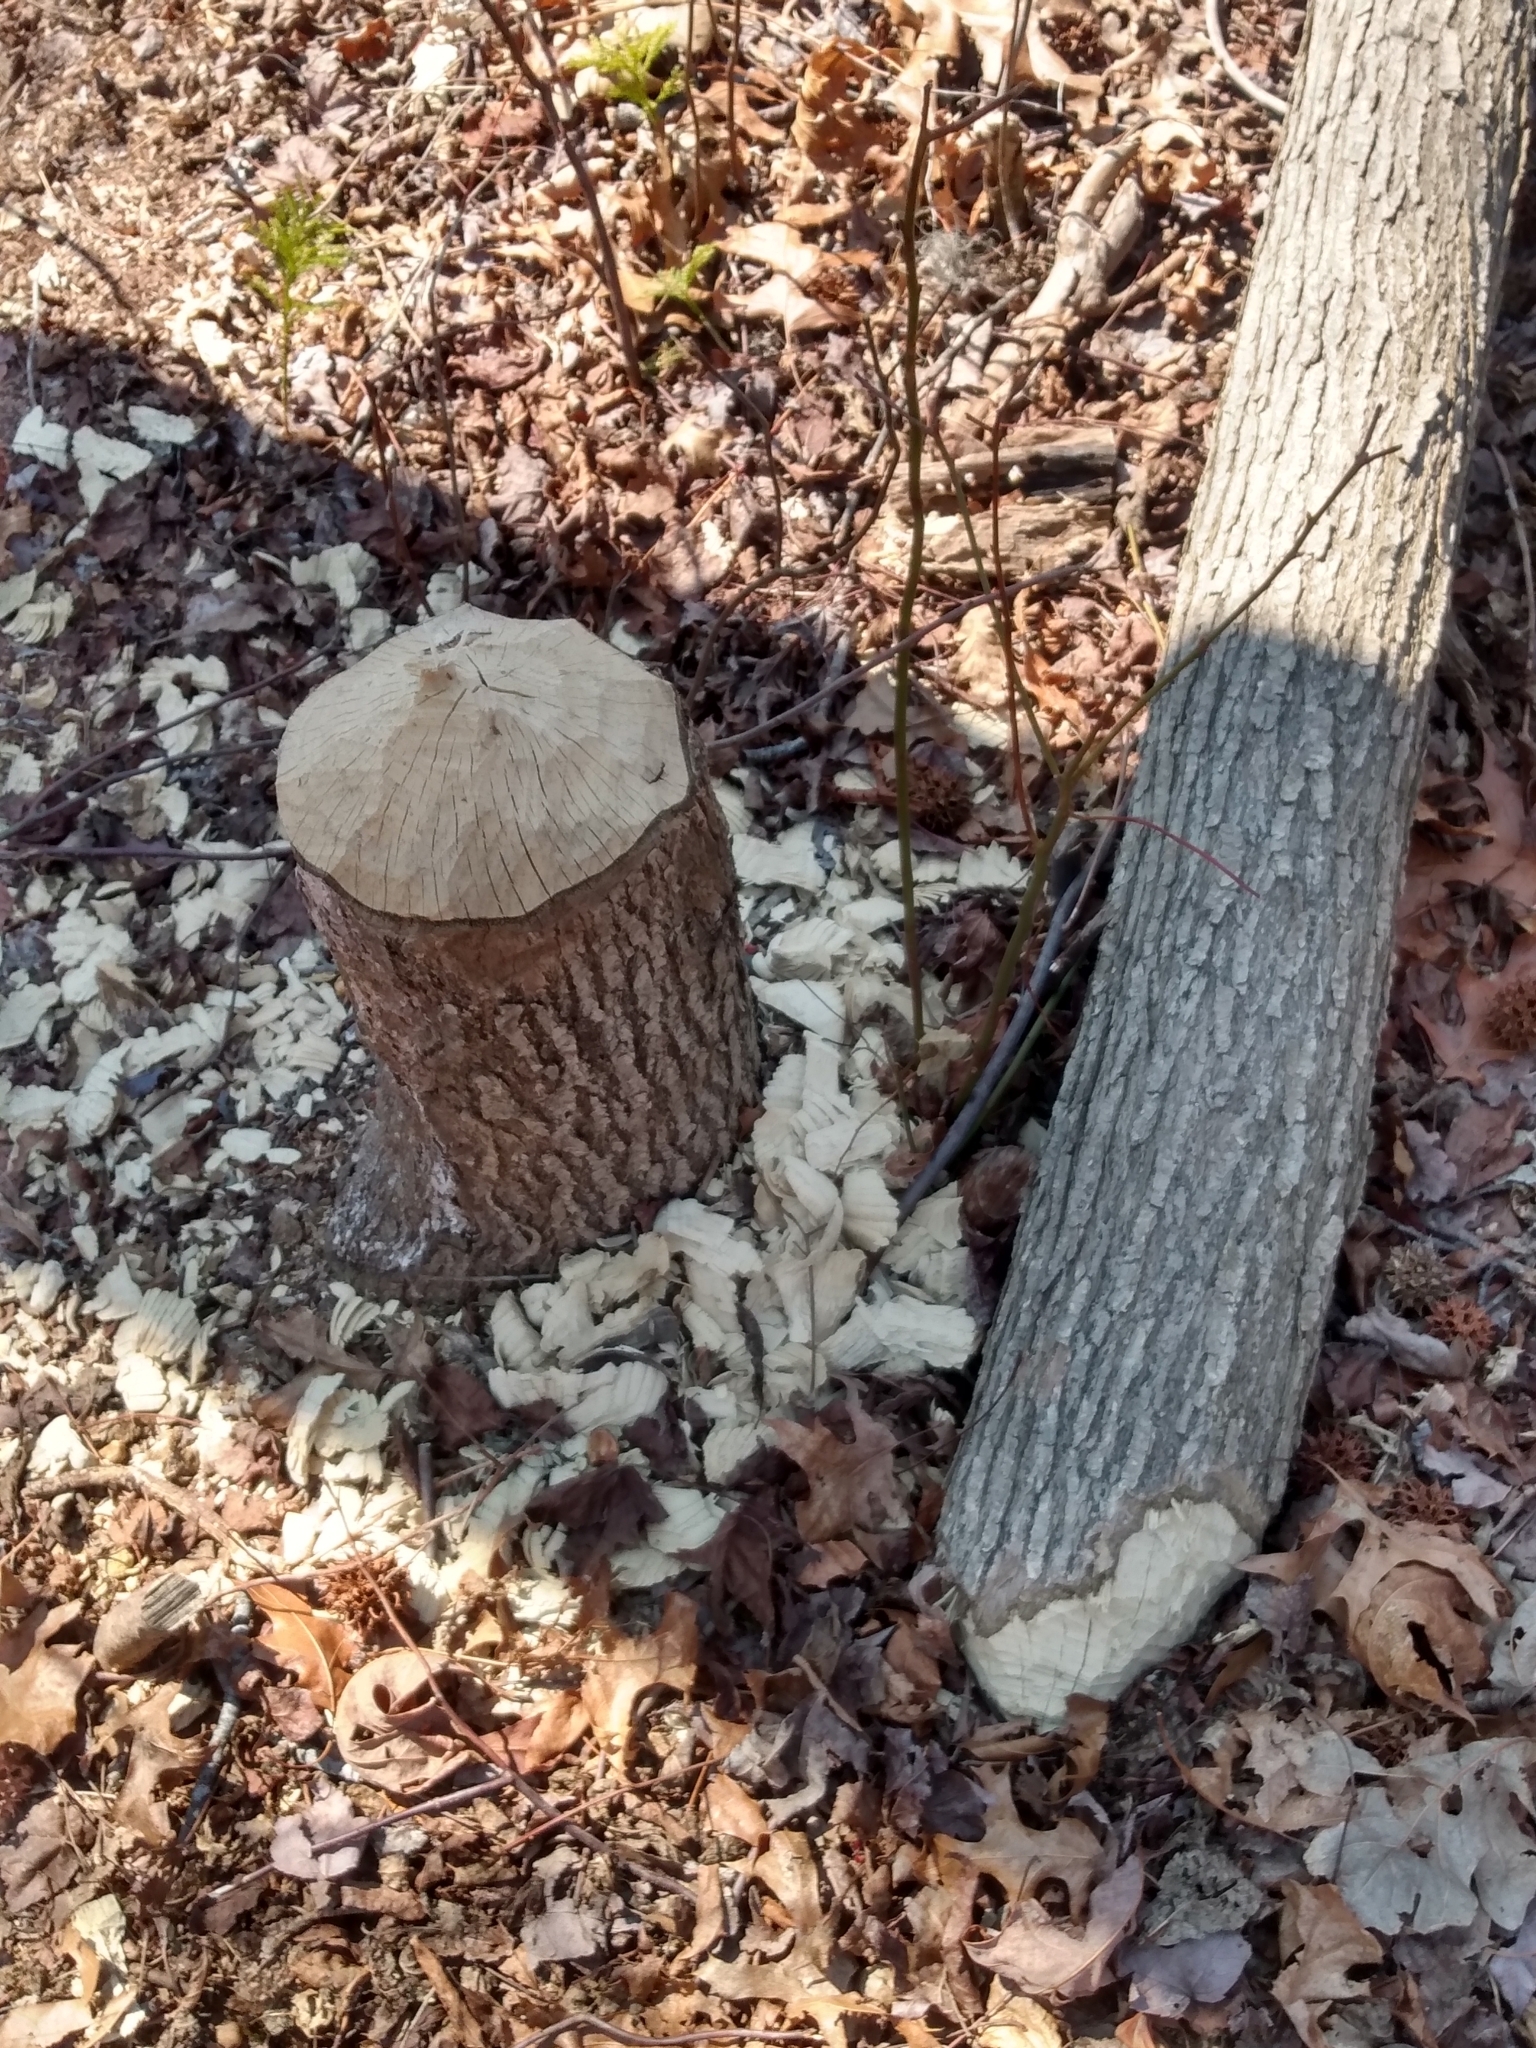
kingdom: Animalia
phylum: Chordata
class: Mammalia
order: Rodentia
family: Castoridae
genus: Castor
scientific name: Castor canadensis
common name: American beaver
